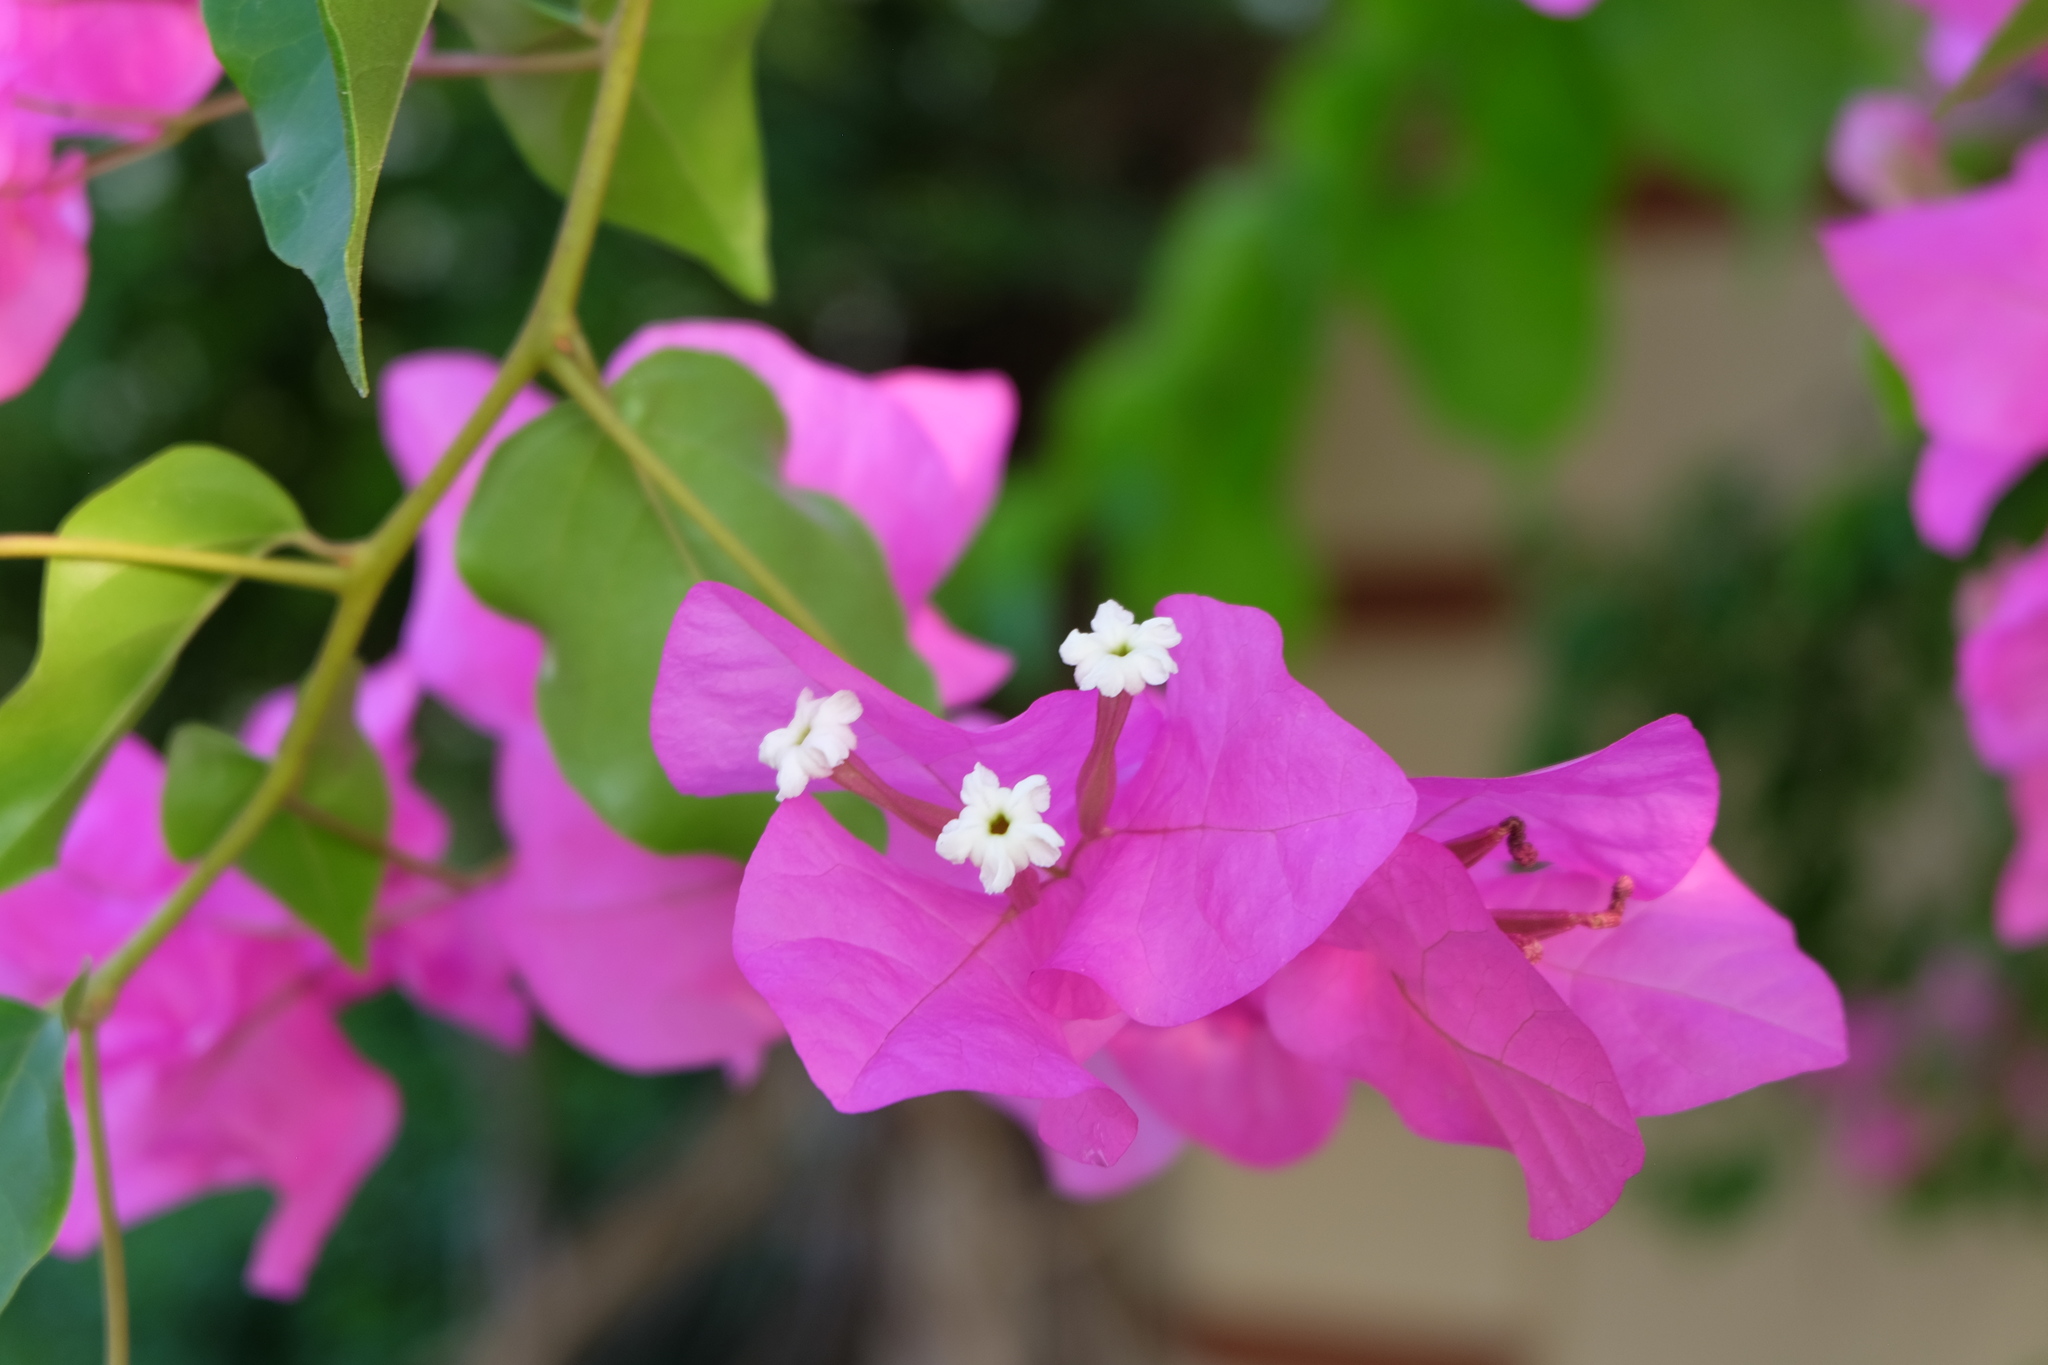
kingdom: Plantae
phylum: Tracheophyta
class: Magnoliopsida
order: Caryophyllales
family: Nyctaginaceae
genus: Bougainvillea
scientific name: Bougainvillea glabra
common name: Paperflower
